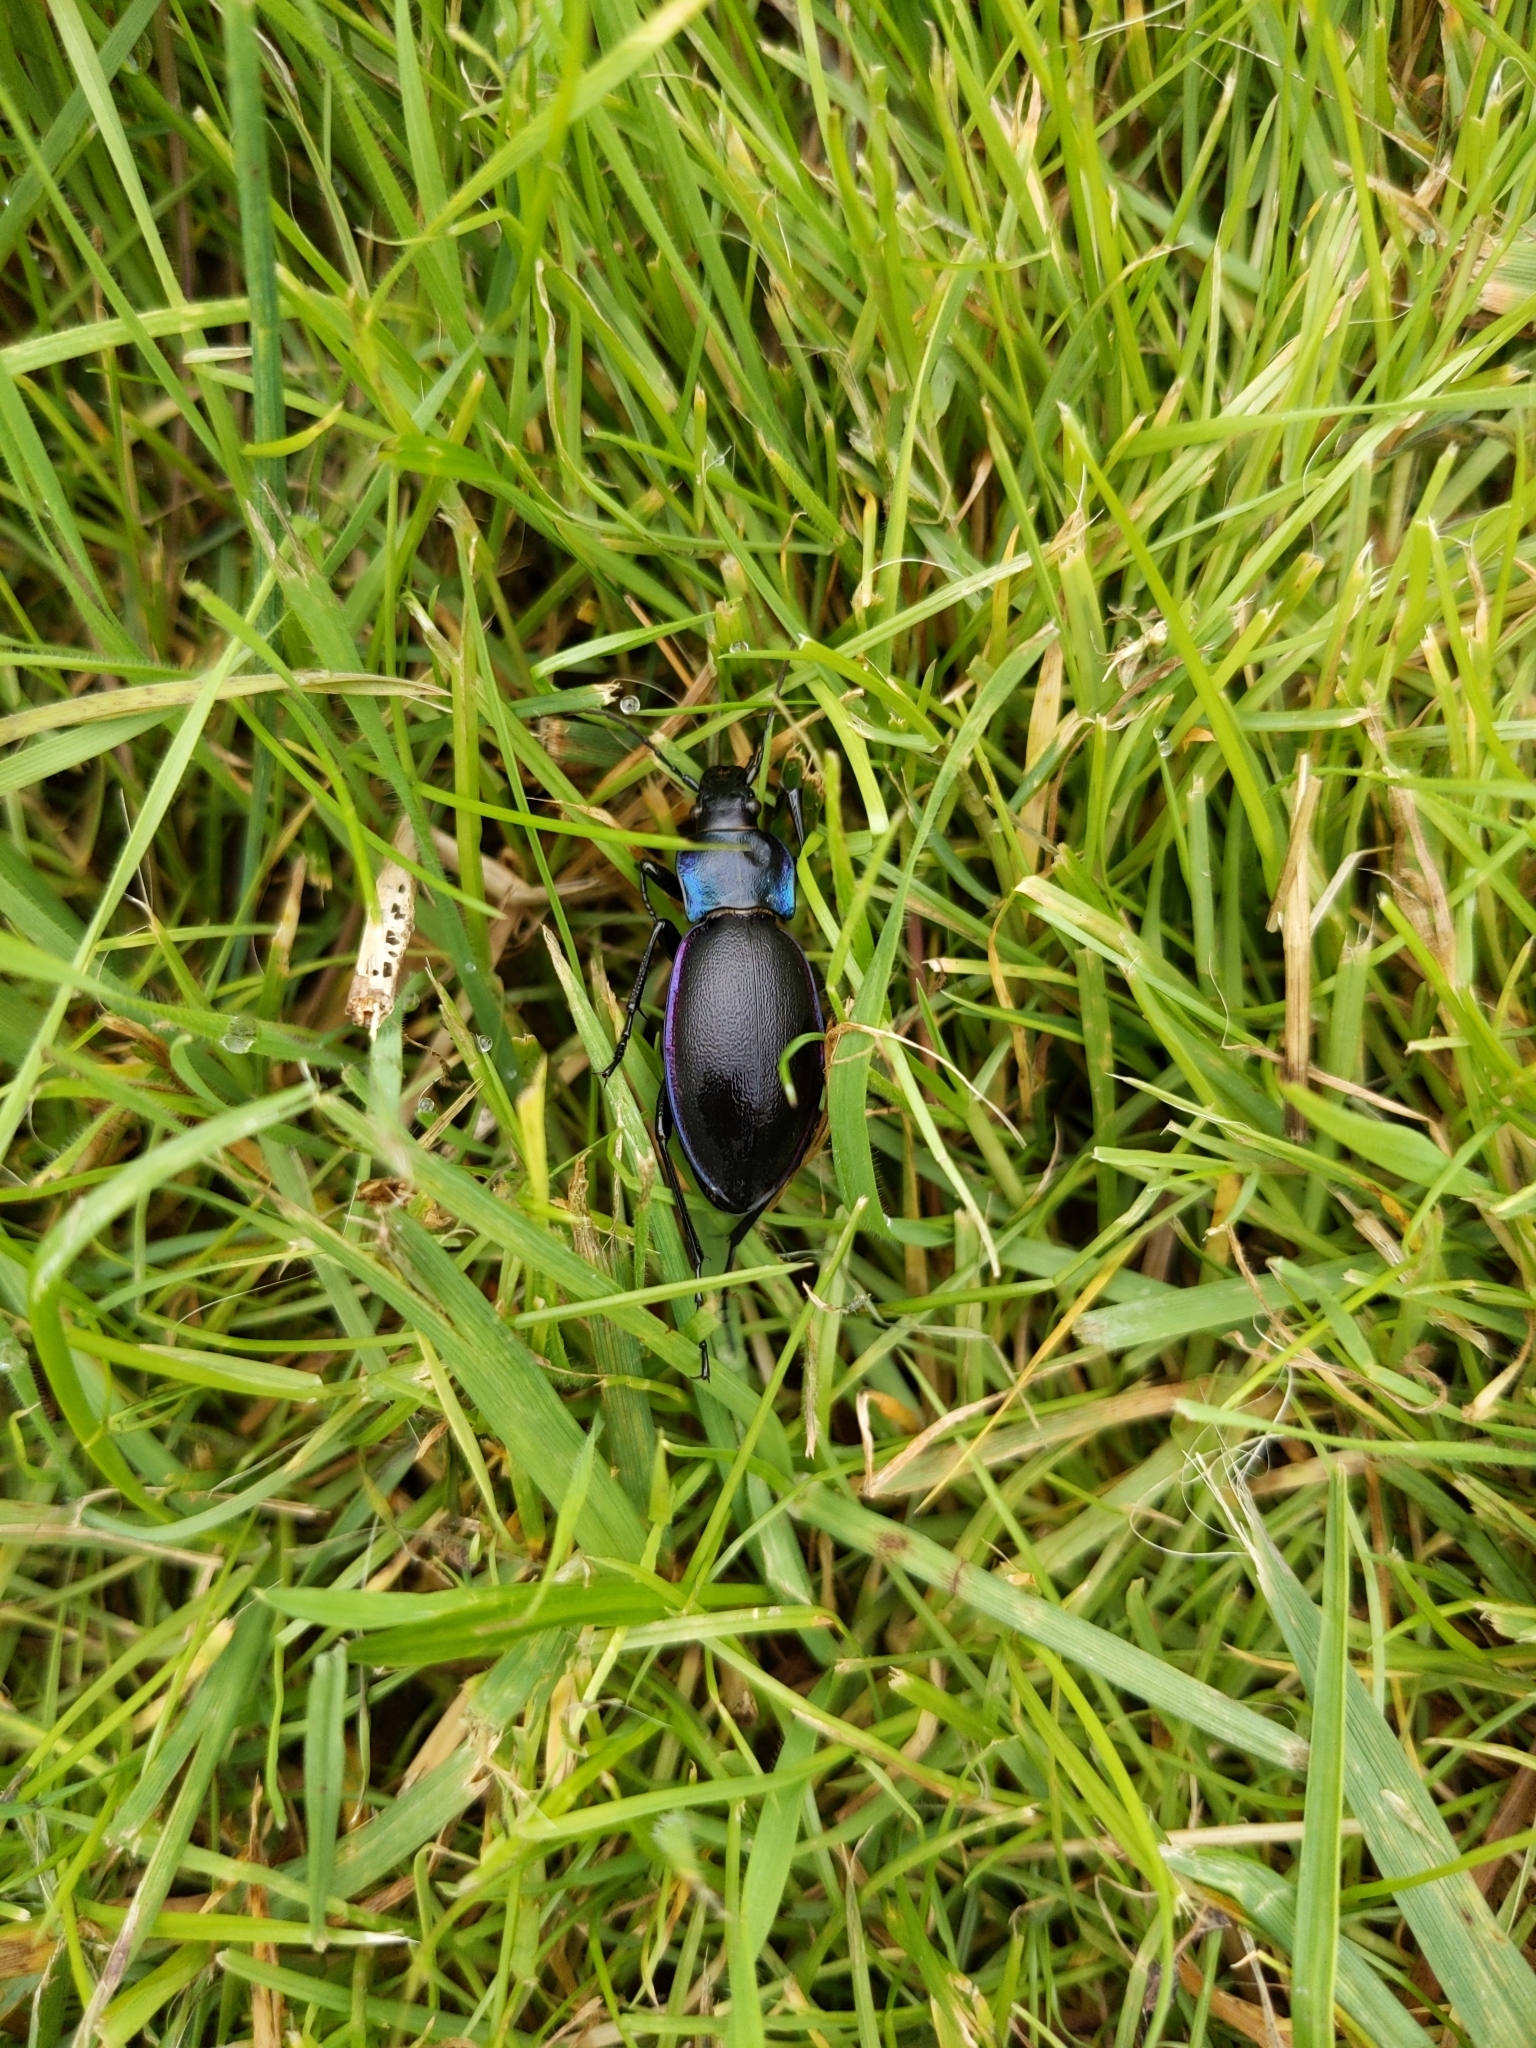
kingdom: Animalia
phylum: Arthropoda
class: Insecta
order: Coleoptera
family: Carabidae
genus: Carabus
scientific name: Carabus violaceus
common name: Violet ground beetle
